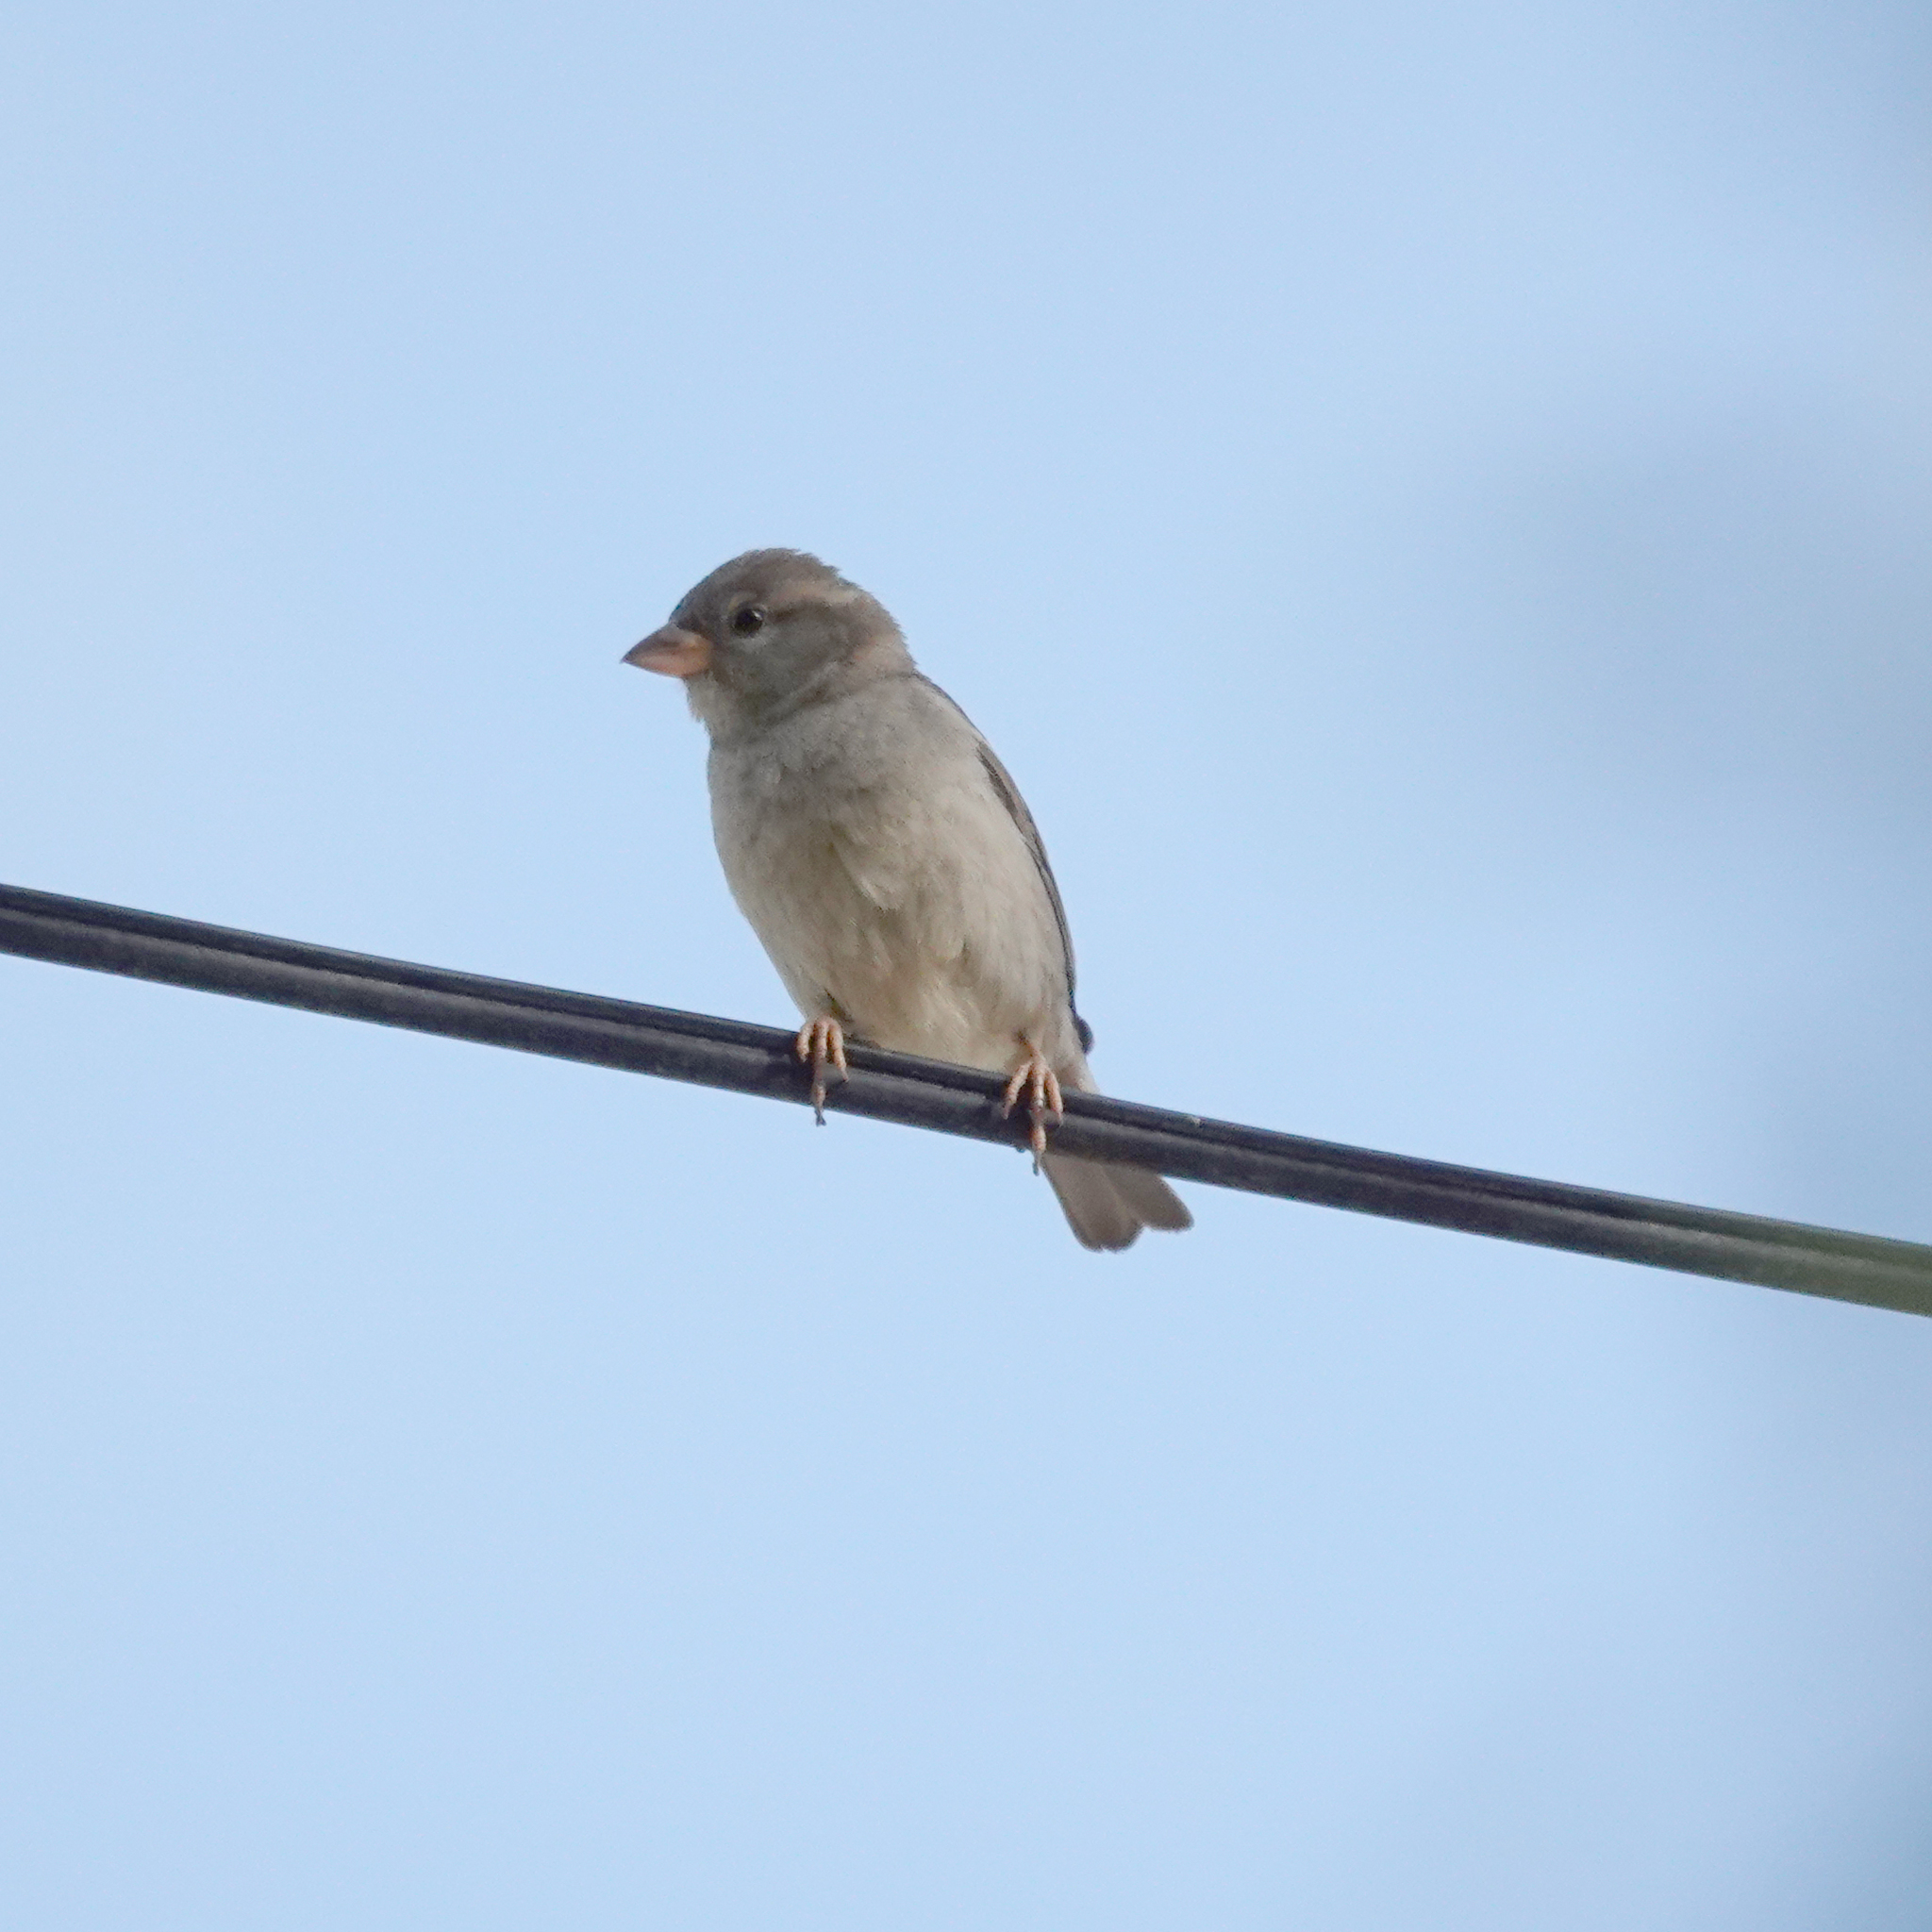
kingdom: Animalia
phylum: Chordata
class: Aves
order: Passeriformes
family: Passeridae
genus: Passer
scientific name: Passer domesticus
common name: House sparrow
